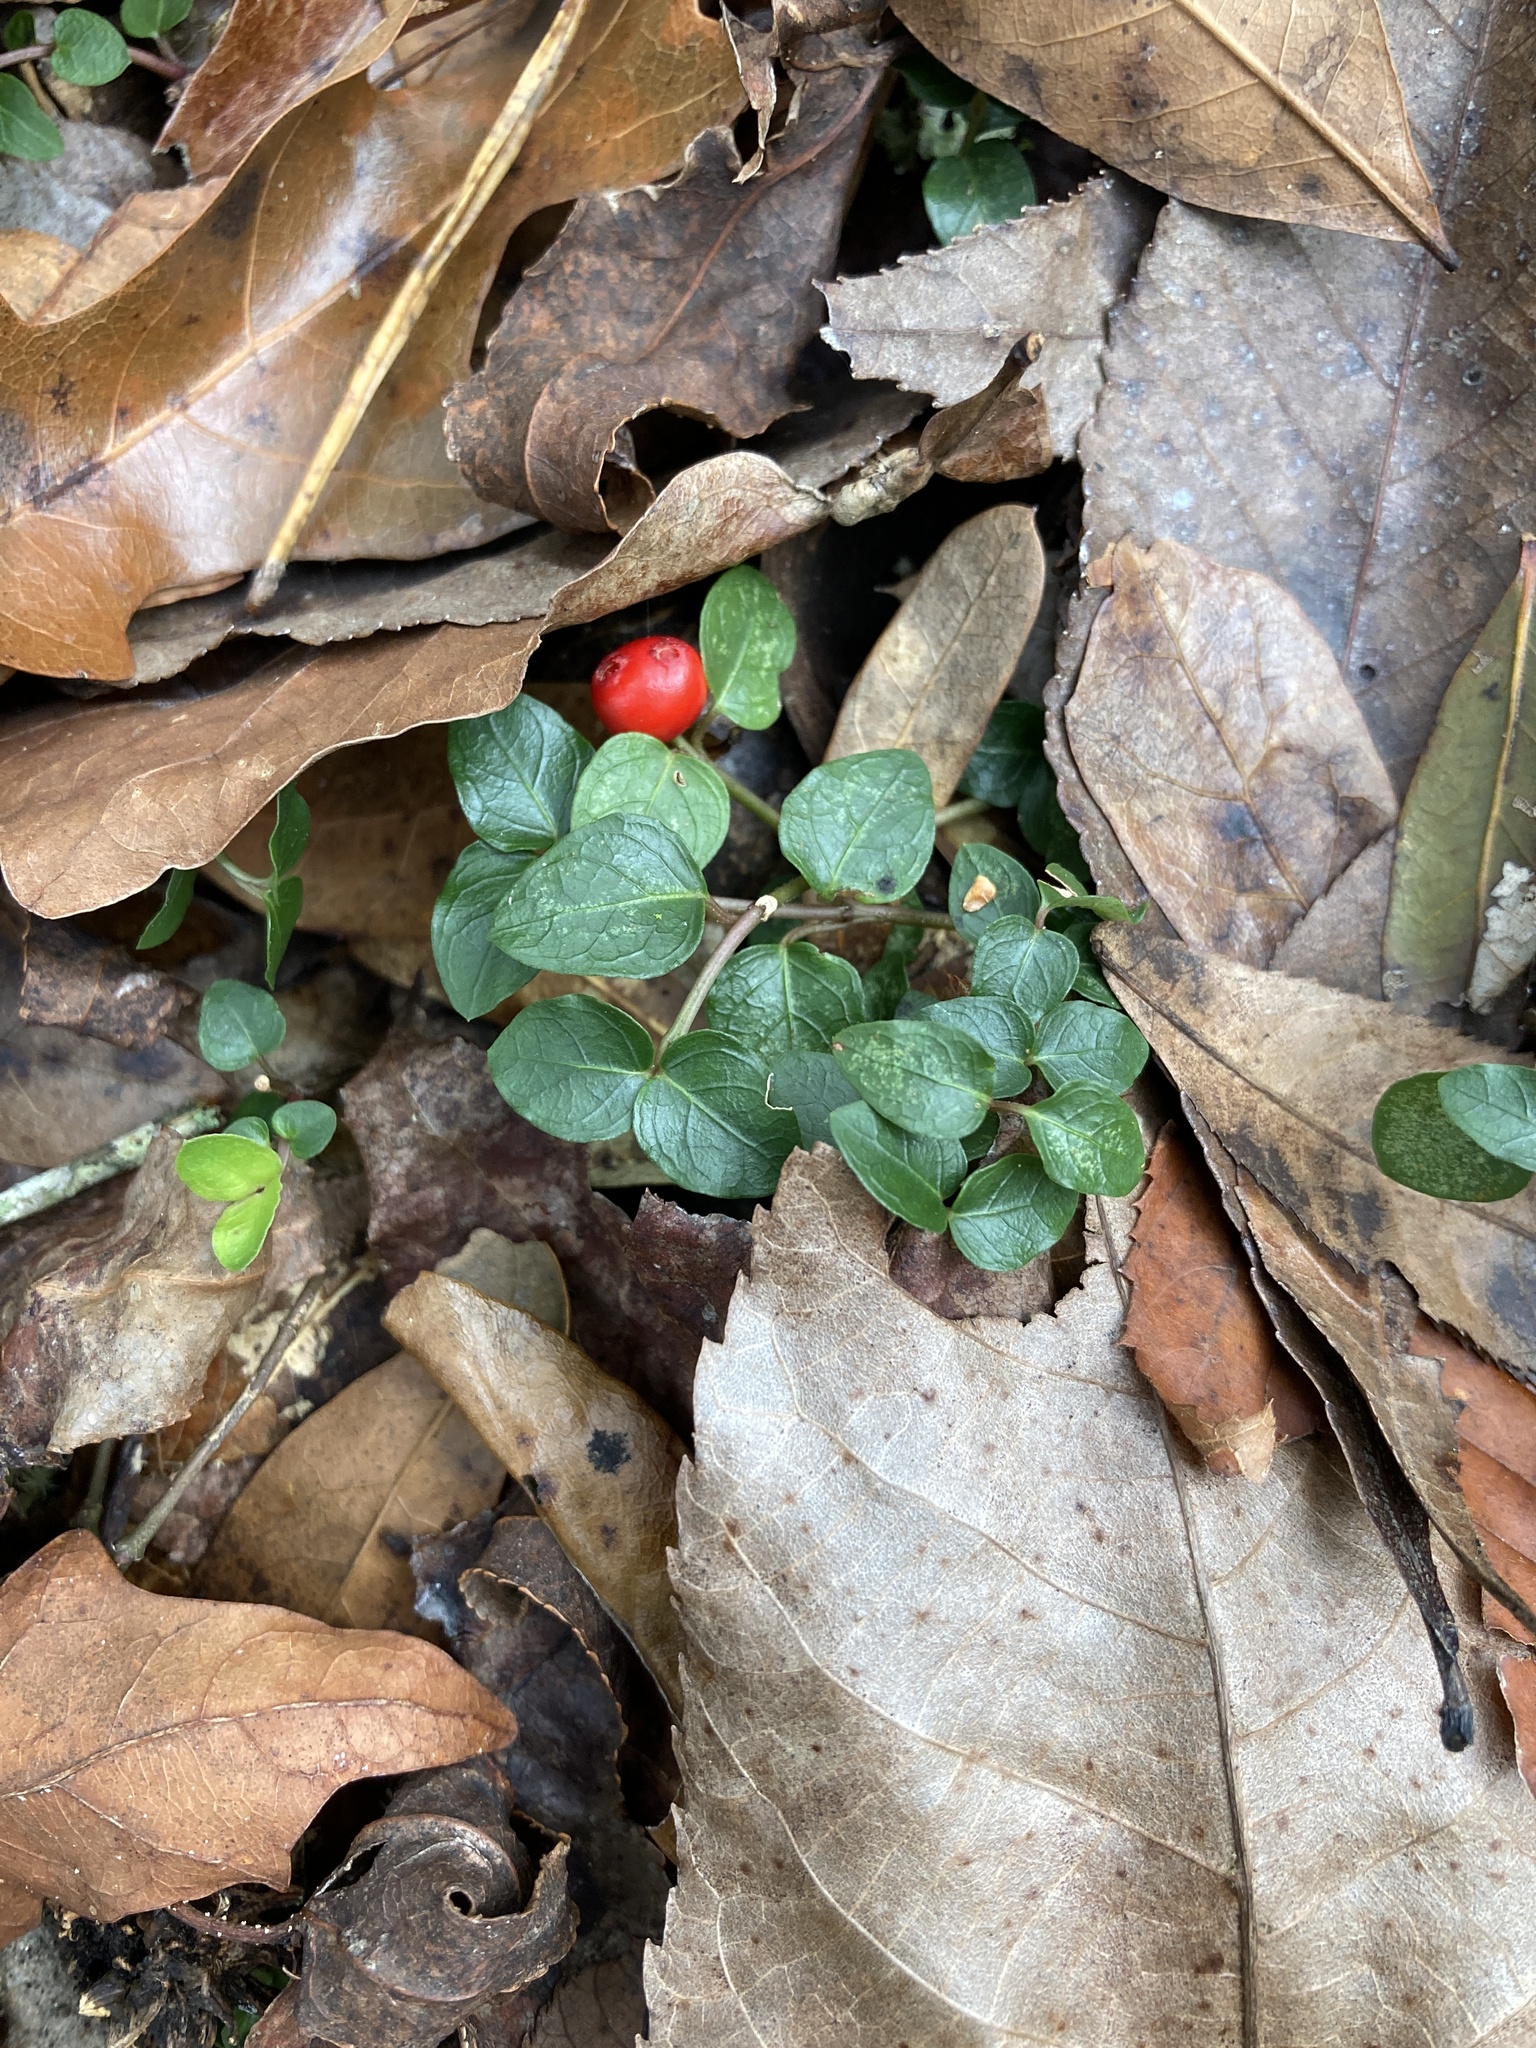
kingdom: Plantae
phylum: Tracheophyta
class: Magnoliopsida
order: Gentianales
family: Rubiaceae
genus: Mitchella
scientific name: Mitchella repens
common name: Partridge-berry
